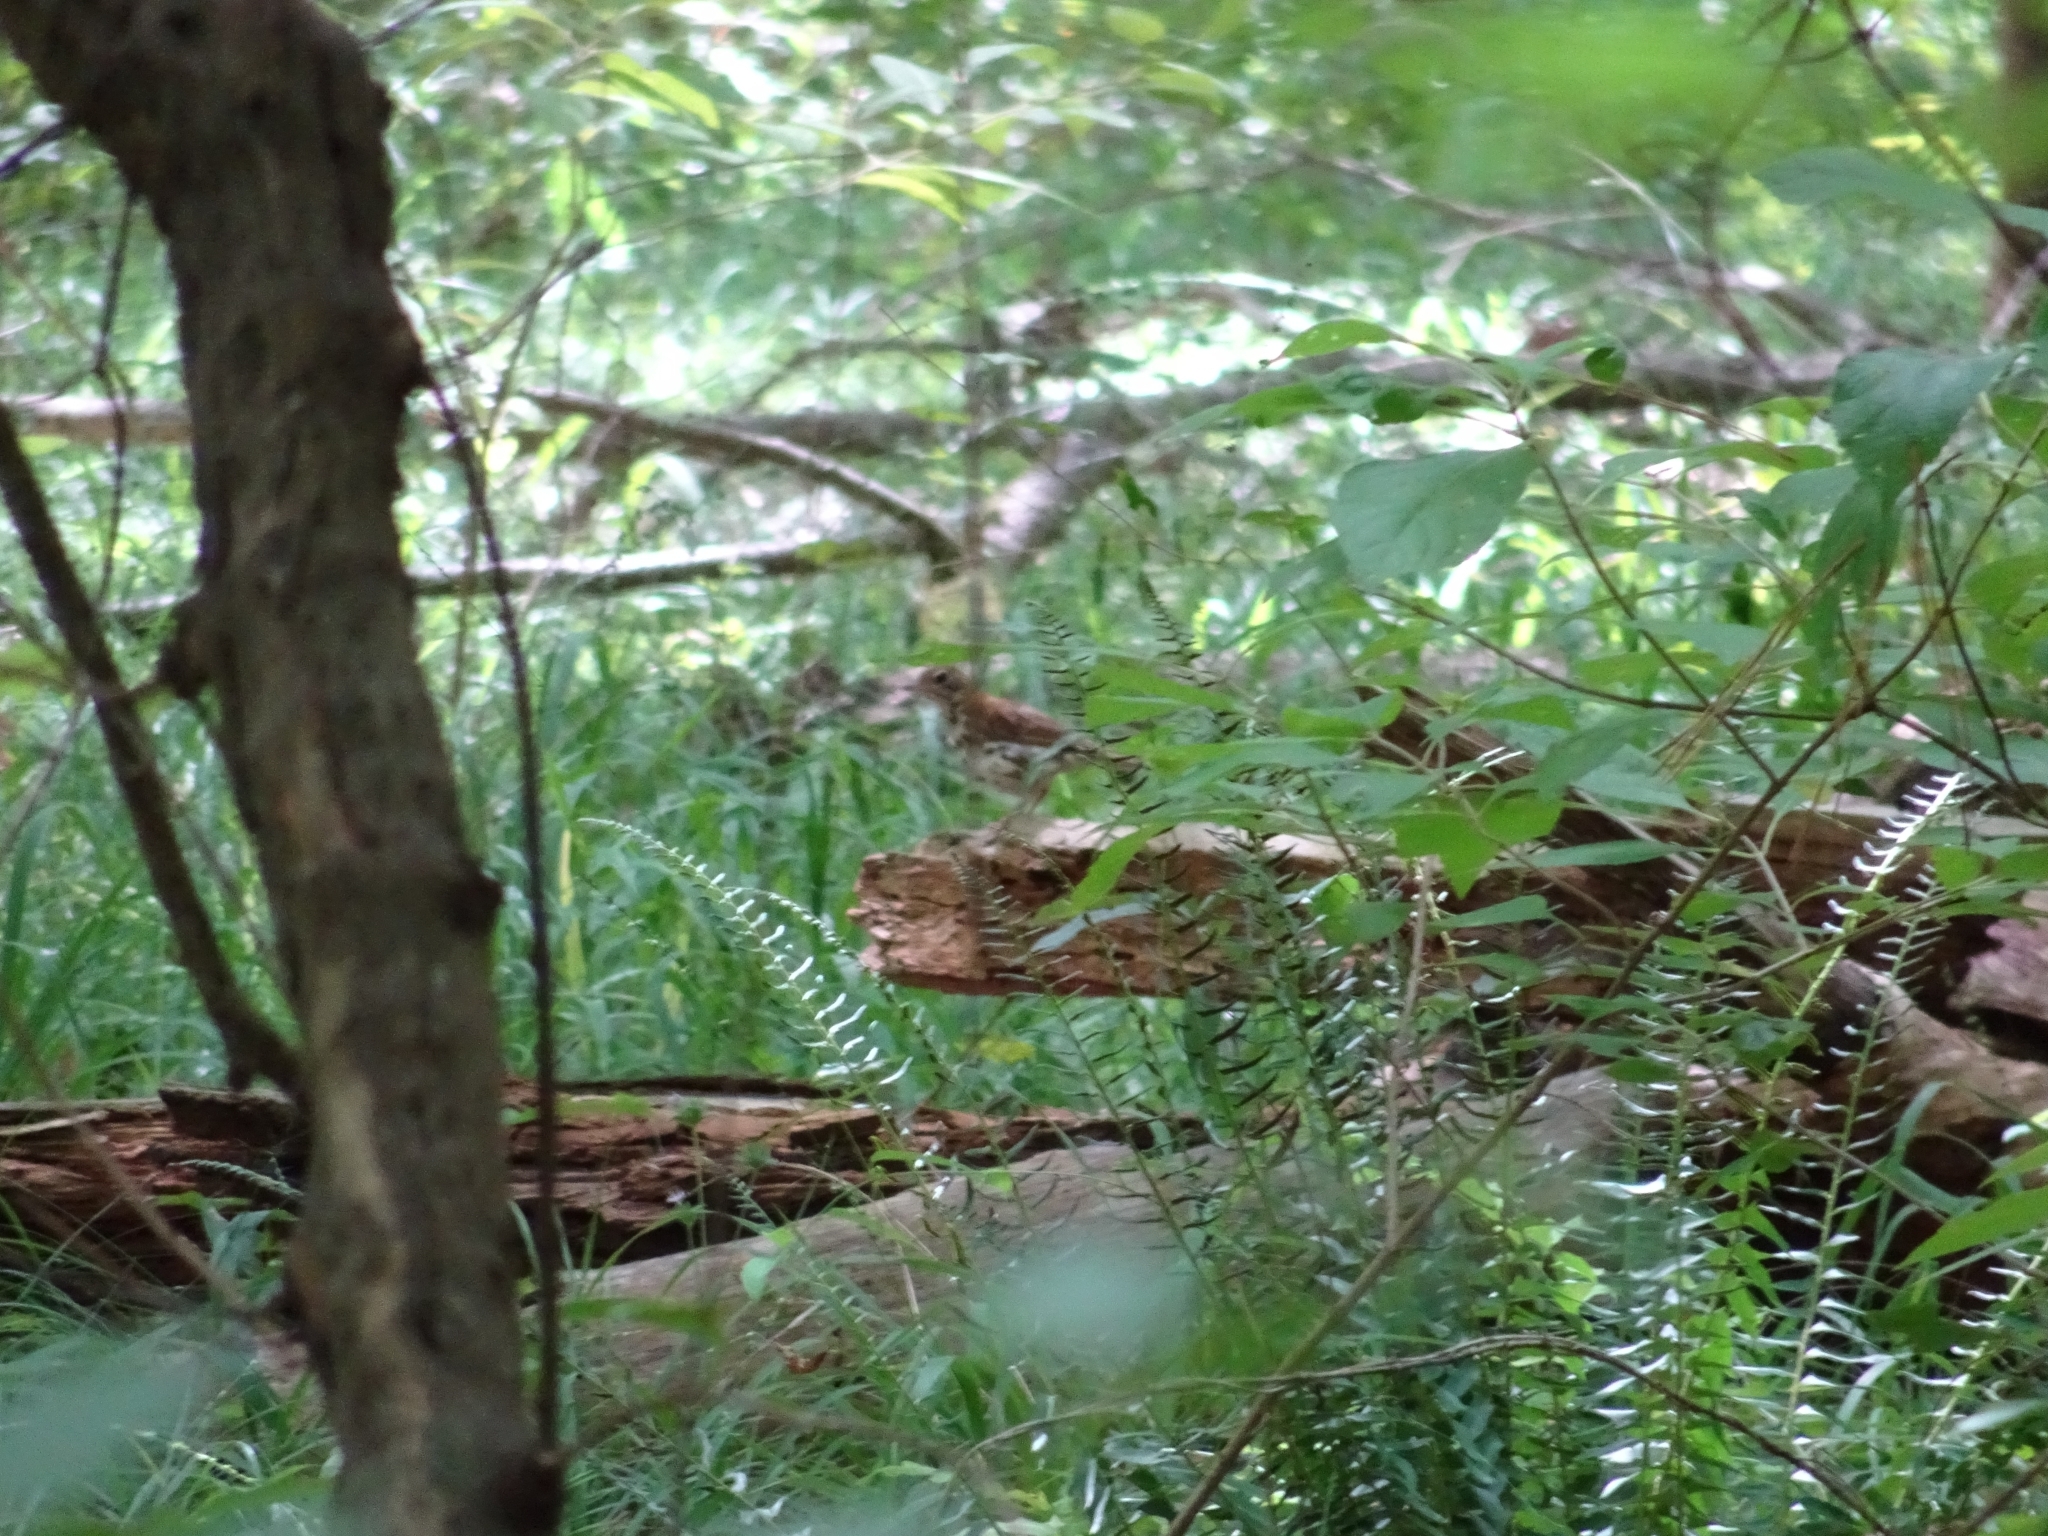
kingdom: Animalia
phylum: Chordata
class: Aves
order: Passeriformes
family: Turdidae
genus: Hylocichla
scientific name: Hylocichla mustelina
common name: Wood thrush
